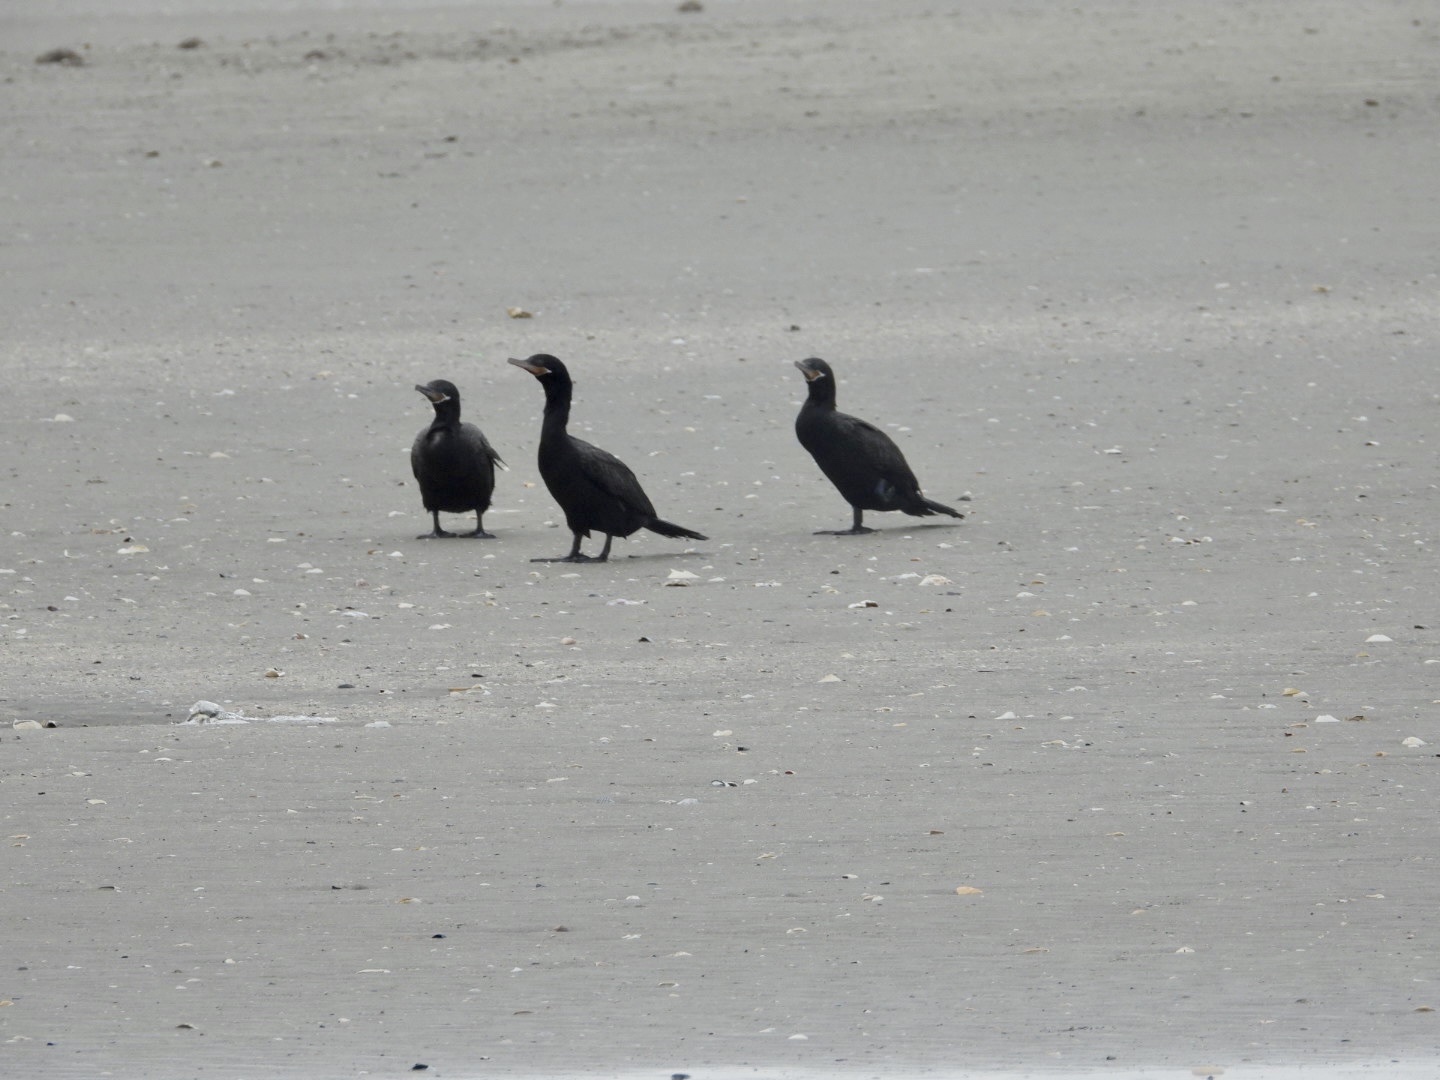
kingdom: Animalia
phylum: Chordata
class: Aves
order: Suliformes
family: Phalacrocoracidae
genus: Phalacrocorax
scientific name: Phalacrocorax brasilianus
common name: Neotropic cormorant
